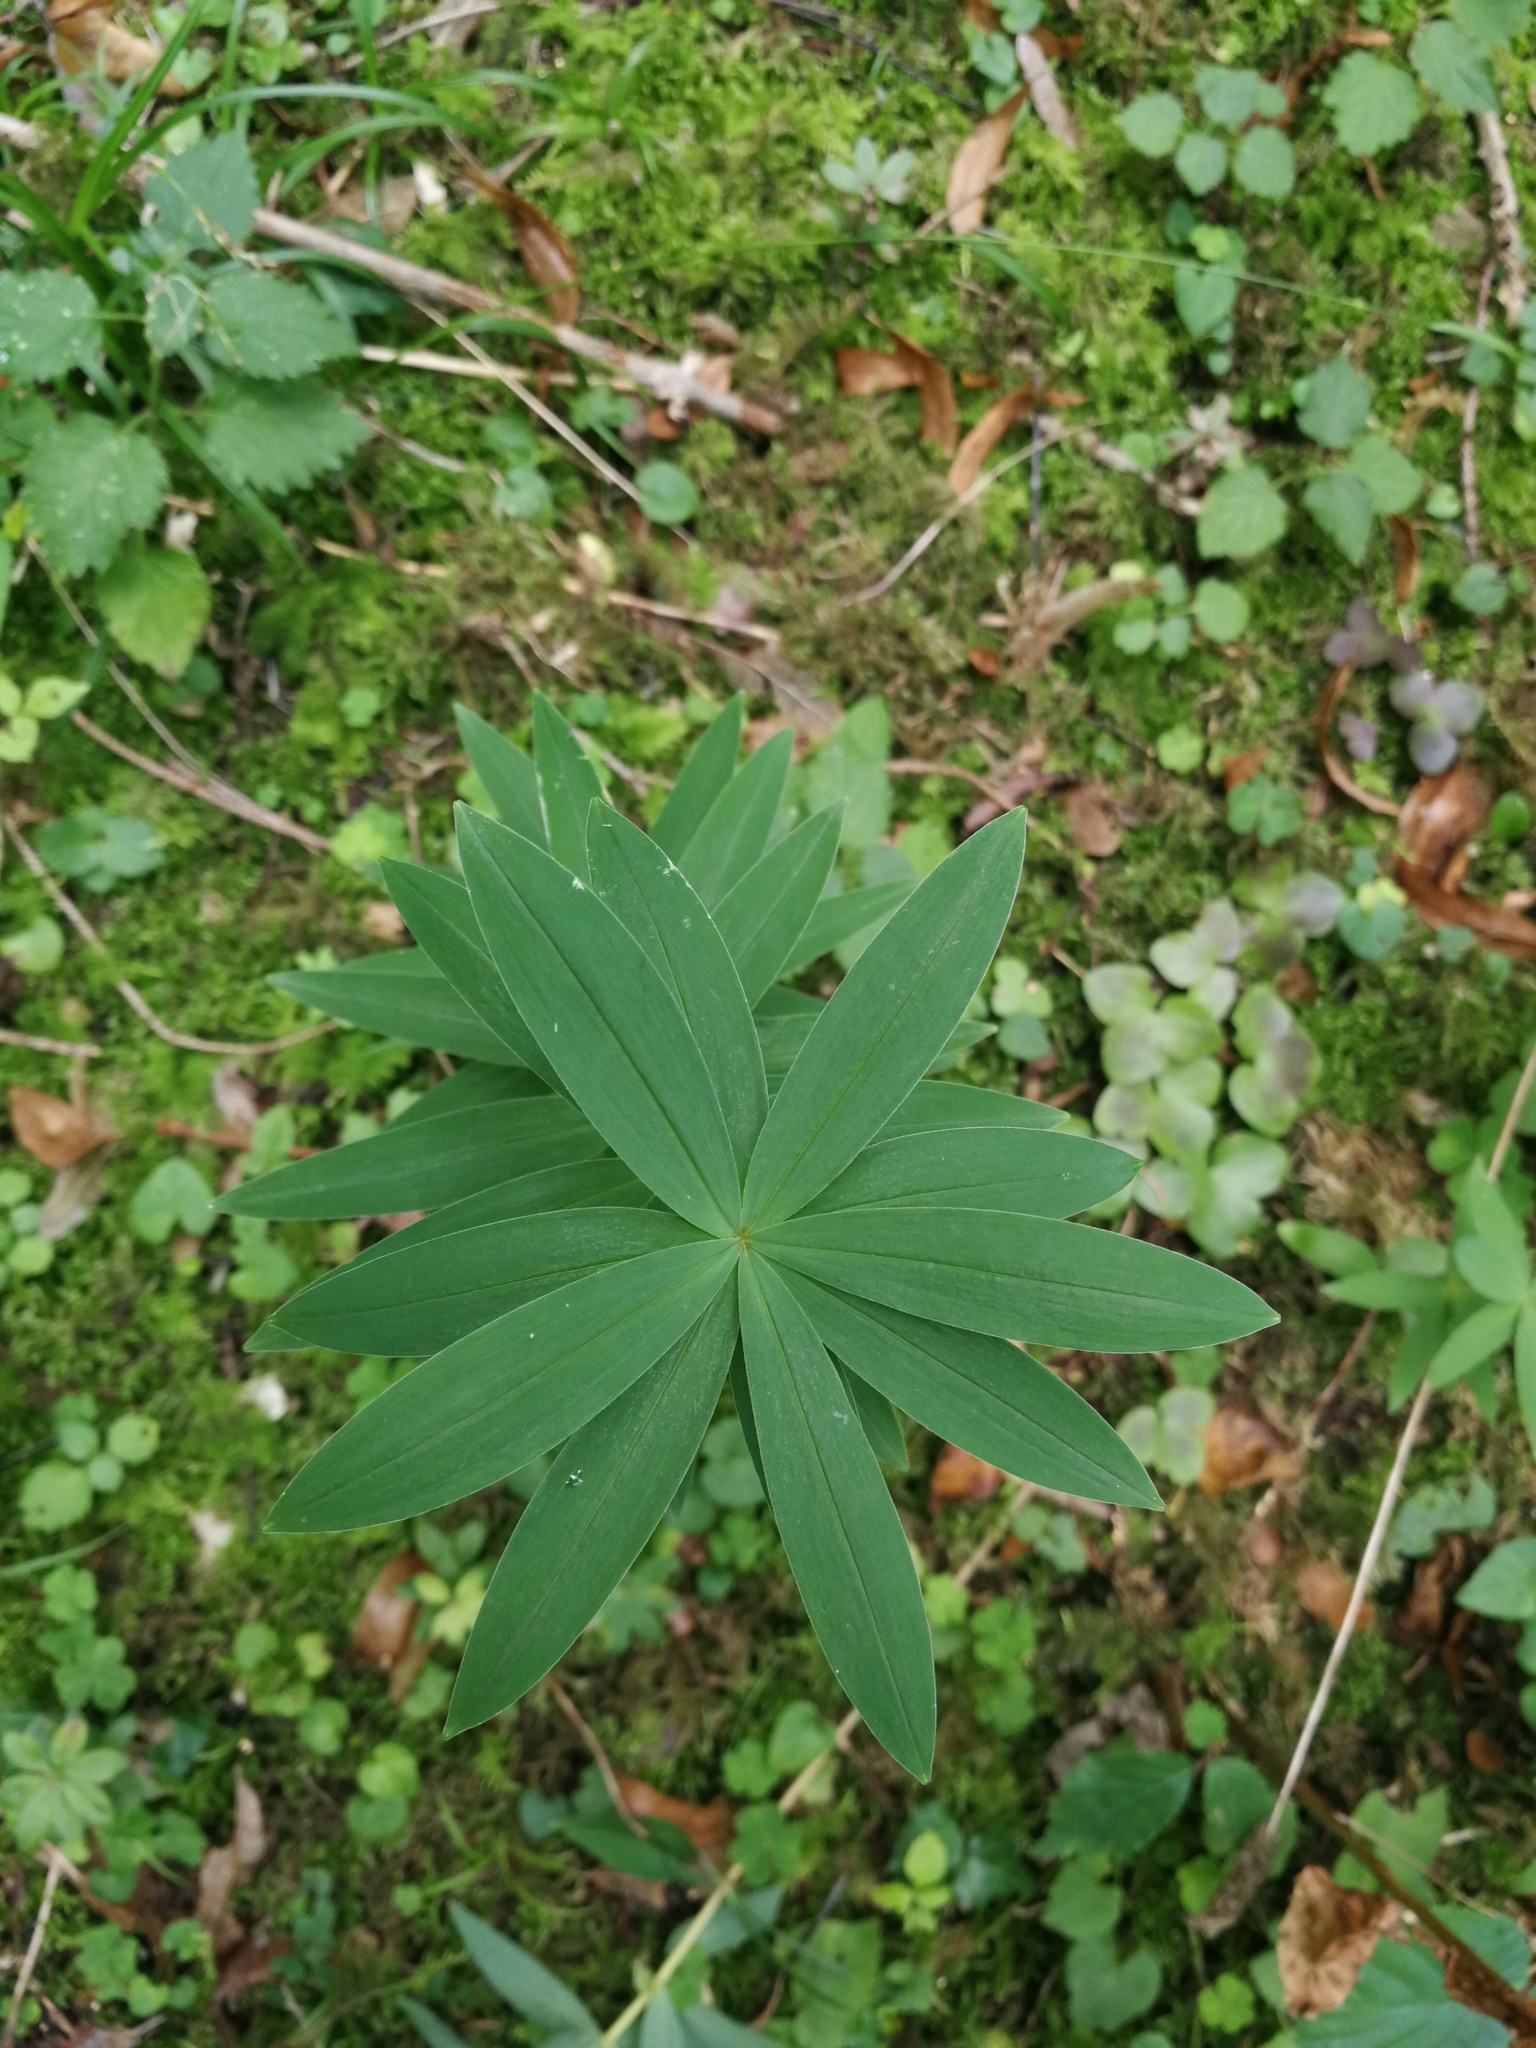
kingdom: Plantae
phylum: Tracheophyta
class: Liliopsida
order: Asparagales
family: Asparagaceae
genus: Polygonatum
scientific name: Polygonatum verticillatum
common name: Whorled solomon's-seal
